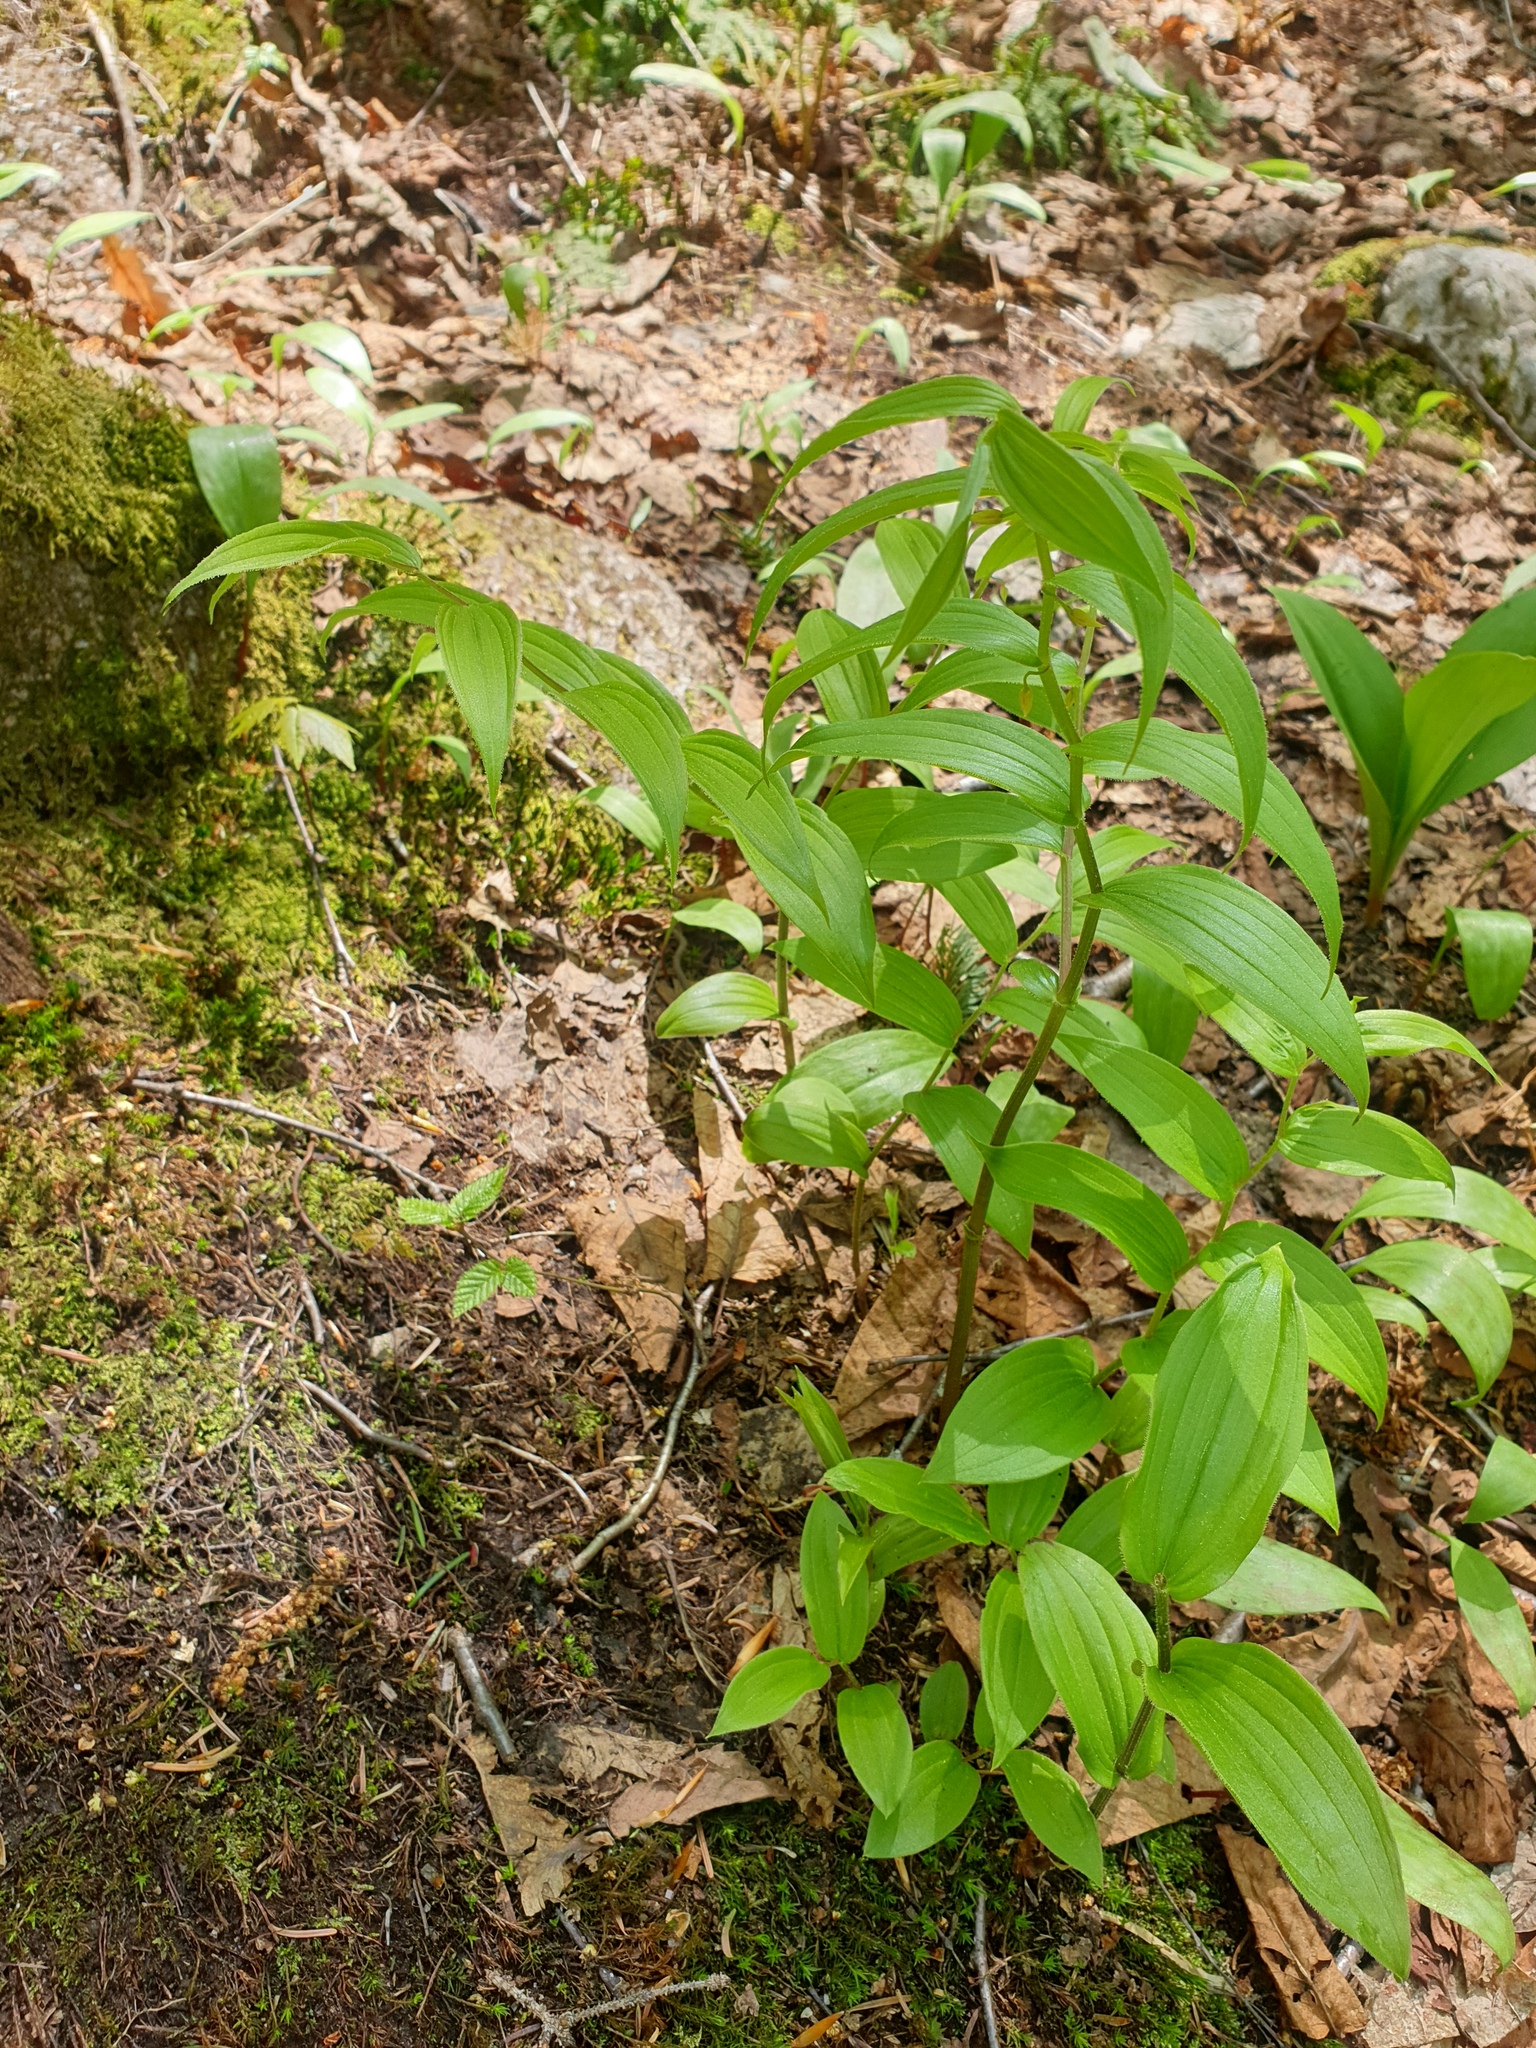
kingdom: Plantae
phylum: Tracheophyta
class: Liliopsida
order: Liliales
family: Liliaceae
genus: Streptopus
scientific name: Streptopus lanceolatus
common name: Rose mandarin
